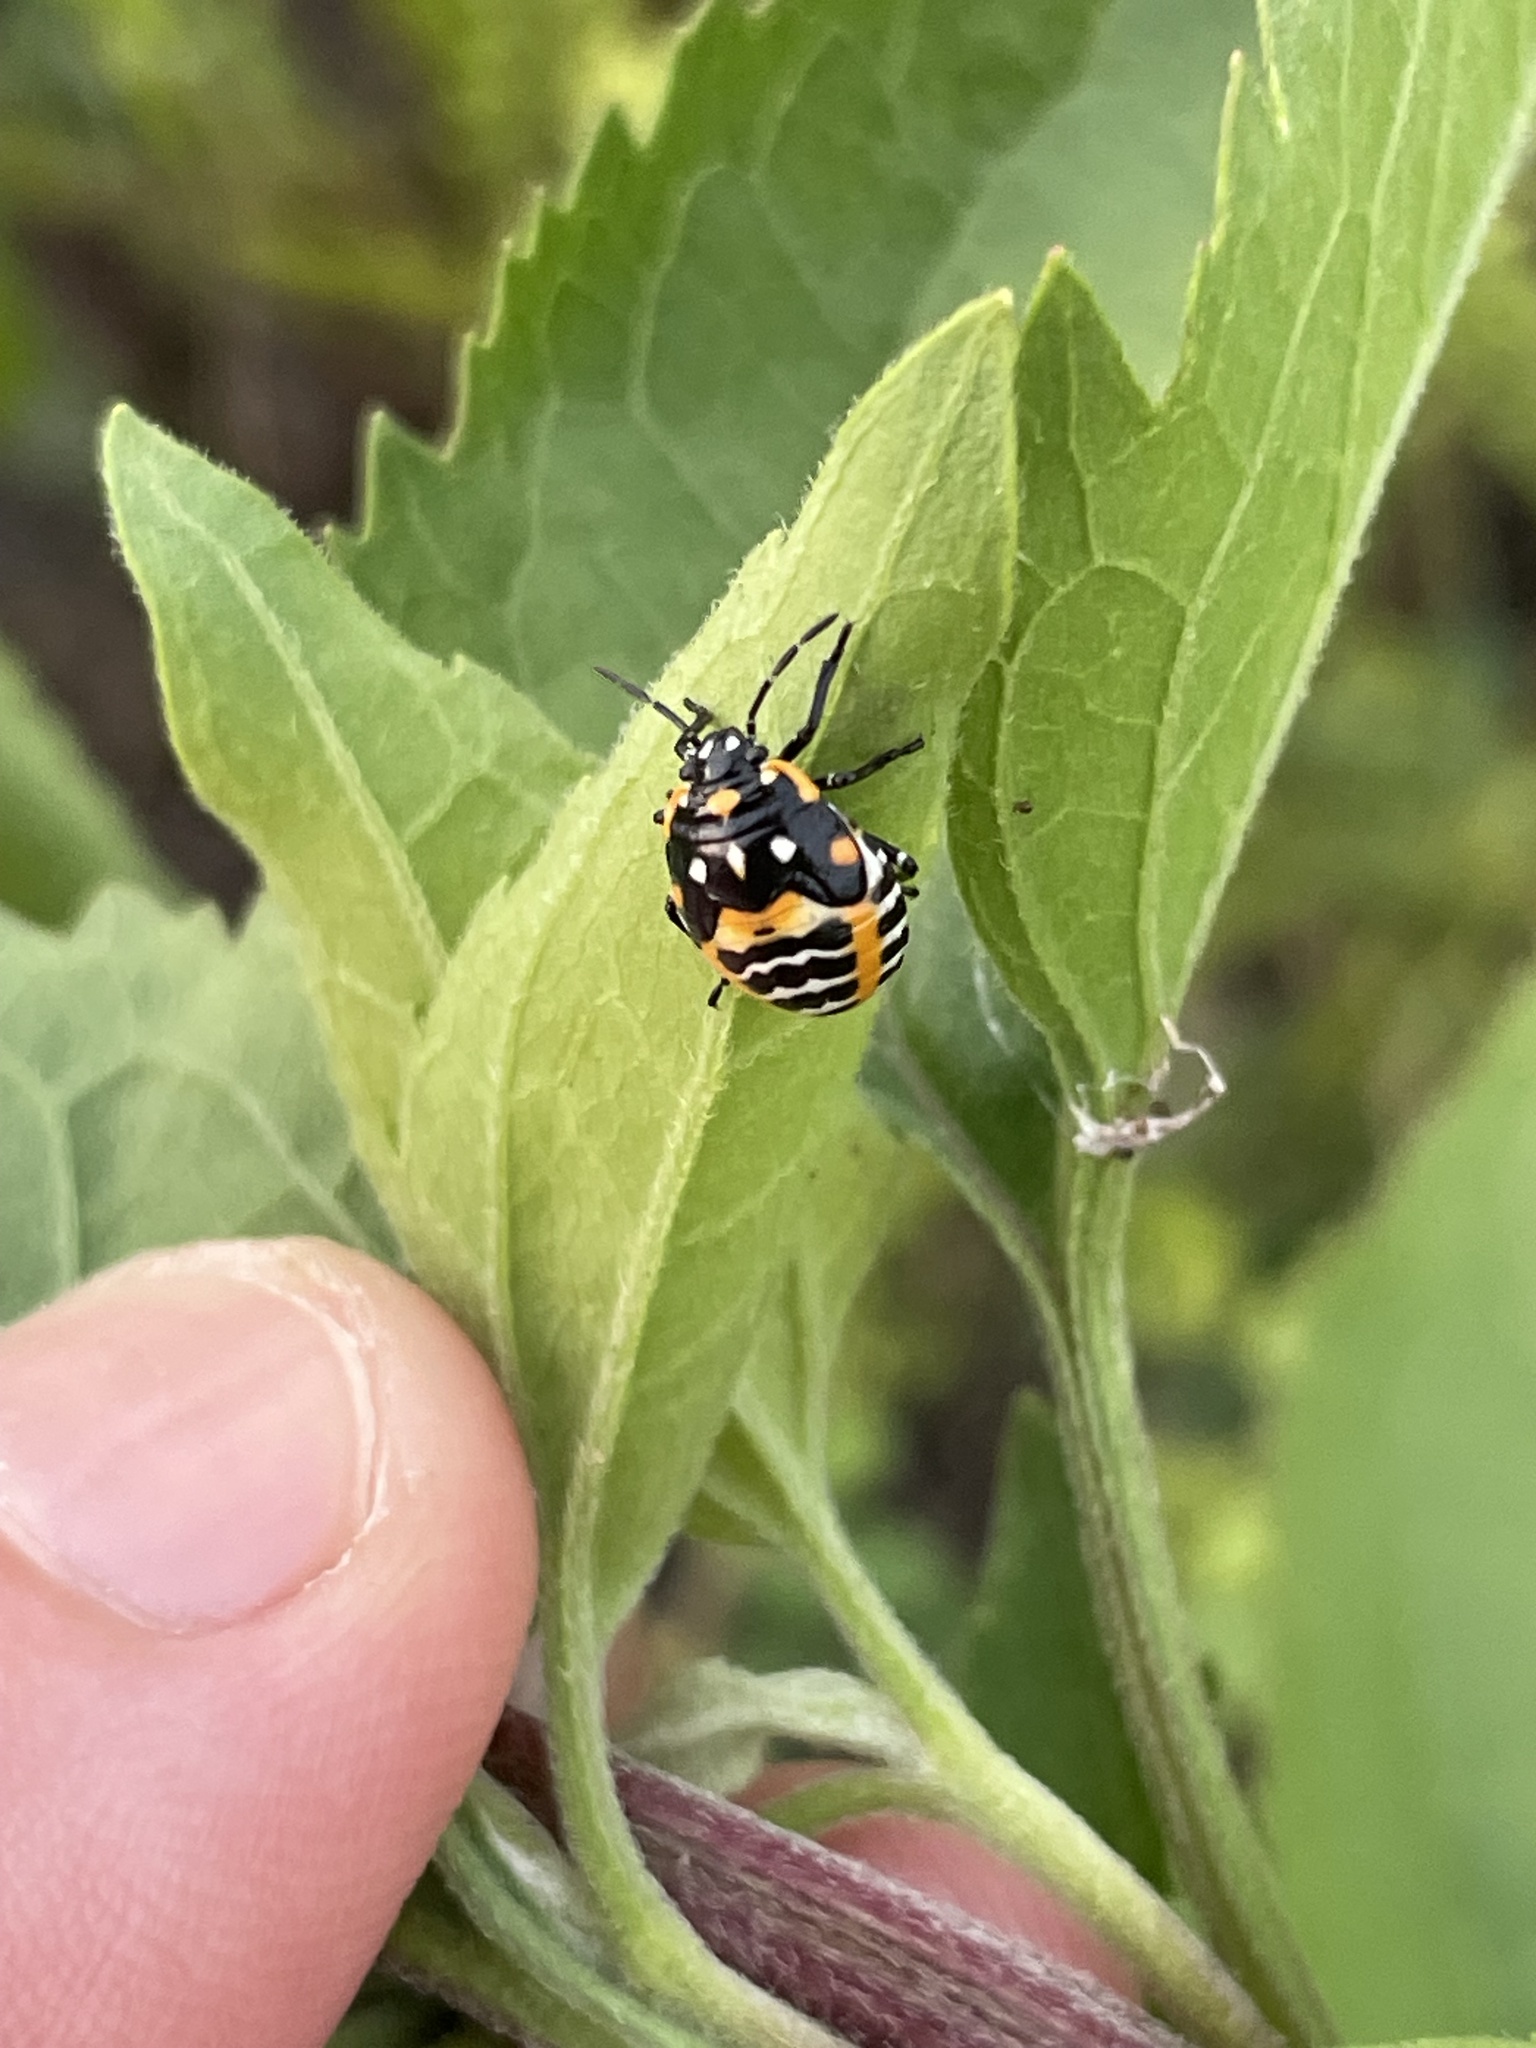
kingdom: Animalia
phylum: Arthropoda
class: Insecta
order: Hemiptera
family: Pentatomidae
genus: Murgantia
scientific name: Murgantia histrionica
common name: Harlequin bug
